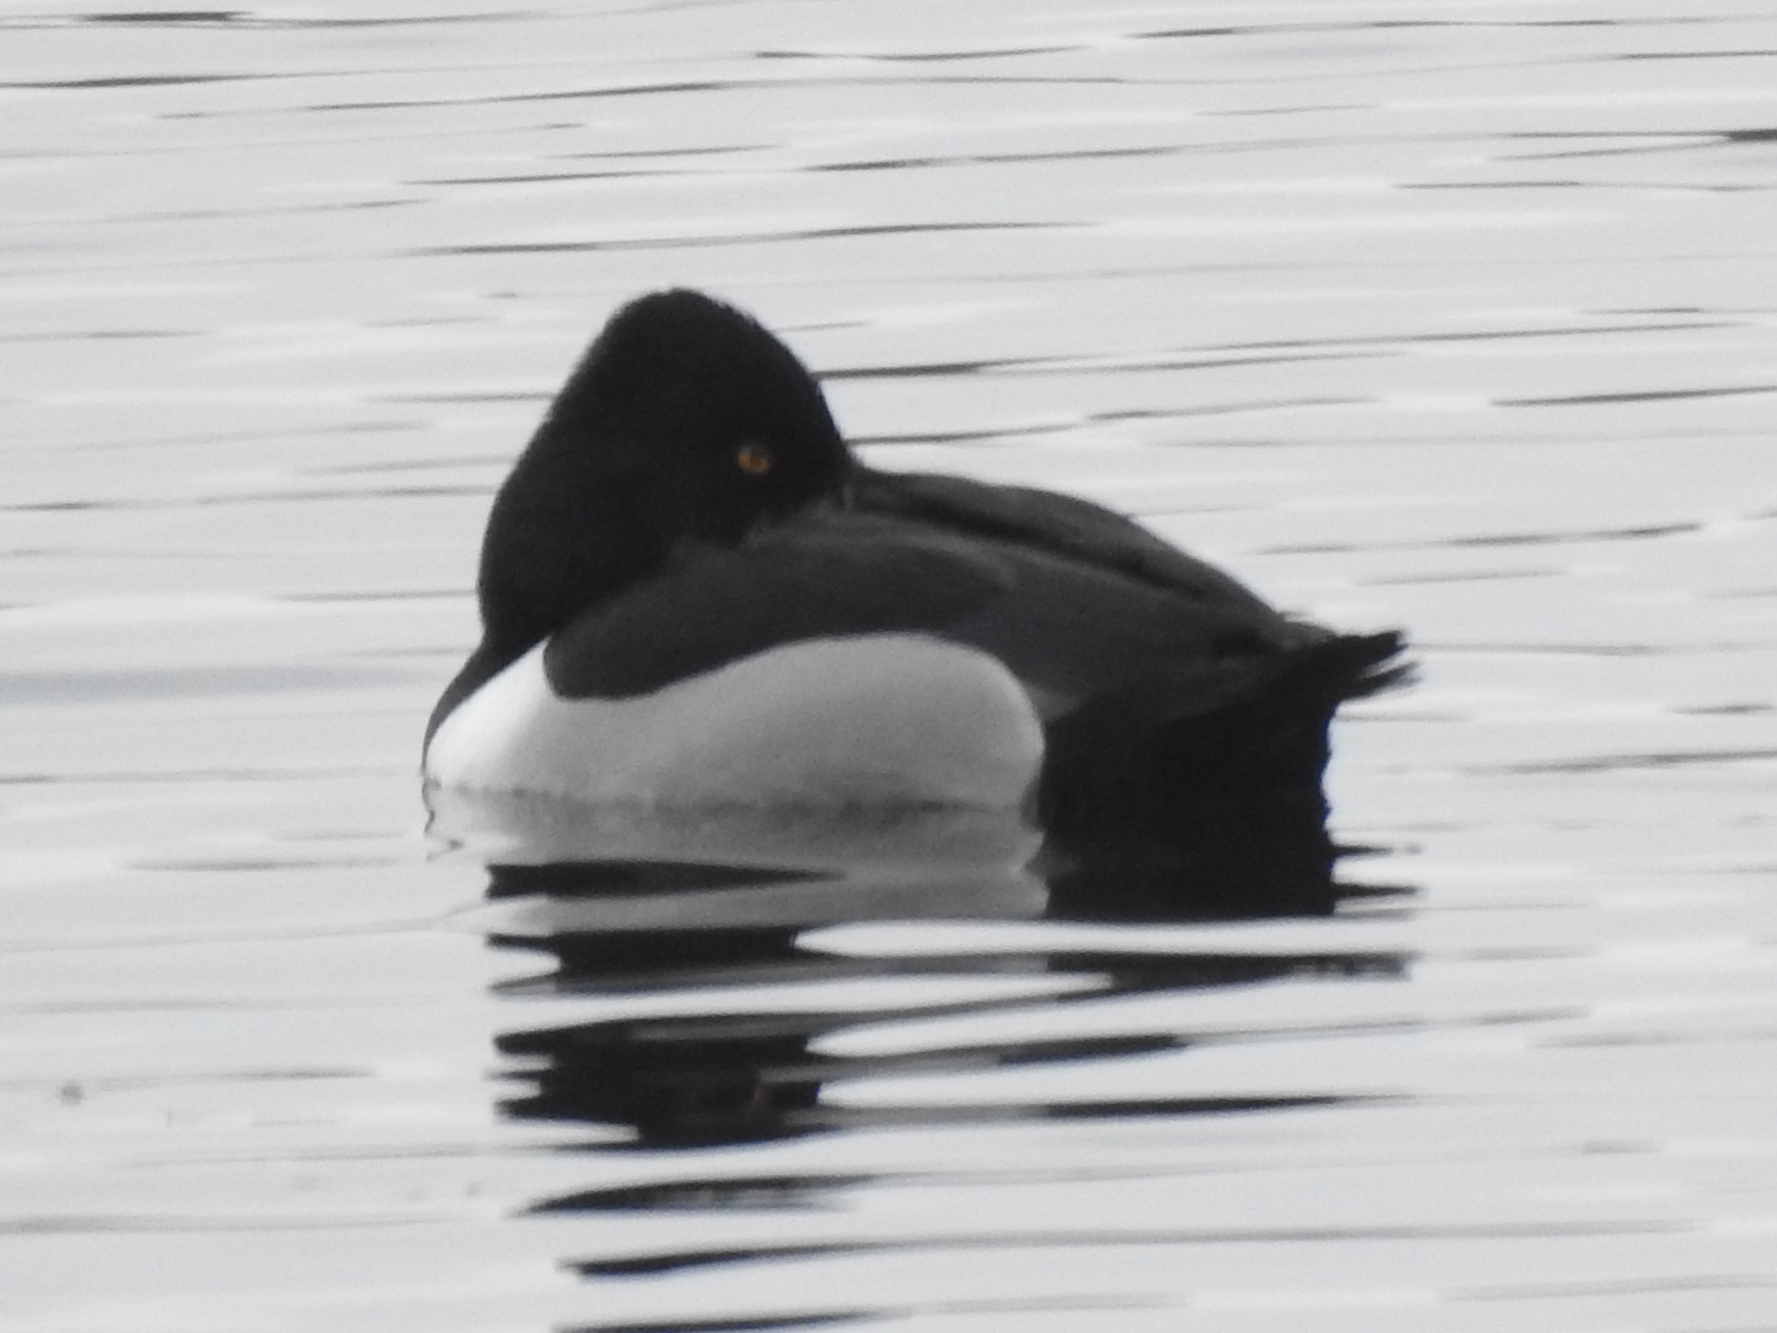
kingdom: Animalia
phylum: Chordata
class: Aves
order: Anseriformes
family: Anatidae
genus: Aythya
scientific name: Aythya collaris
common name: Ring-necked duck
